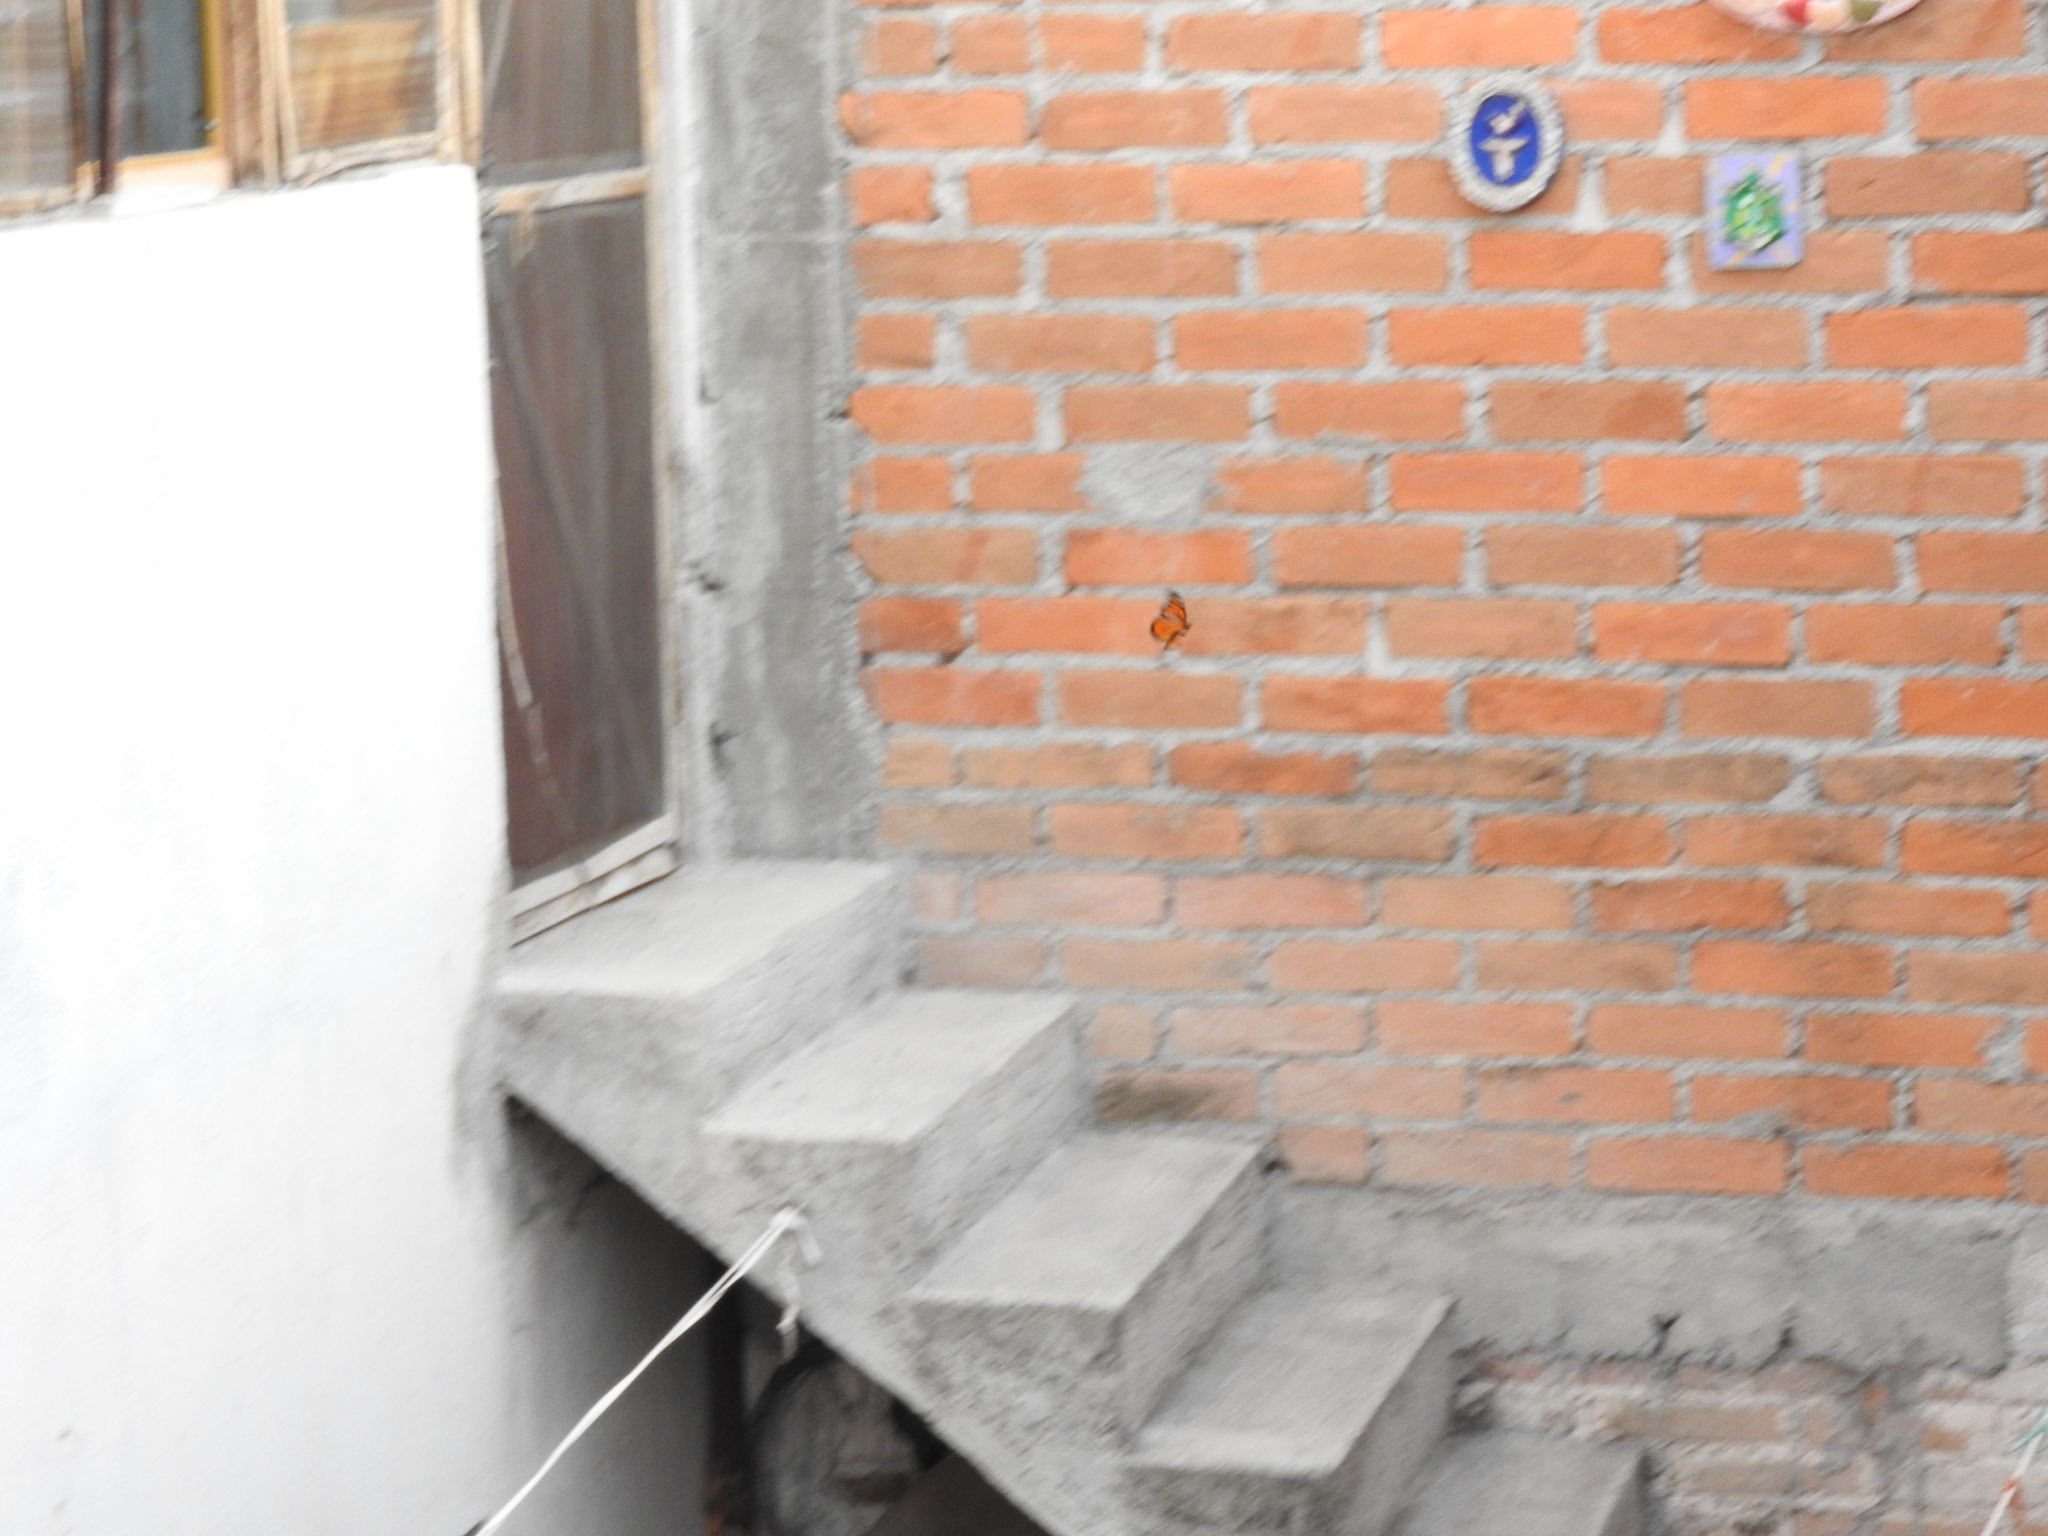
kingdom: Animalia
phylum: Arthropoda
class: Insecta
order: Lepidoptera
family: Nymphalidae
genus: Danaus
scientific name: Danaus plexippus
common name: Monarch
